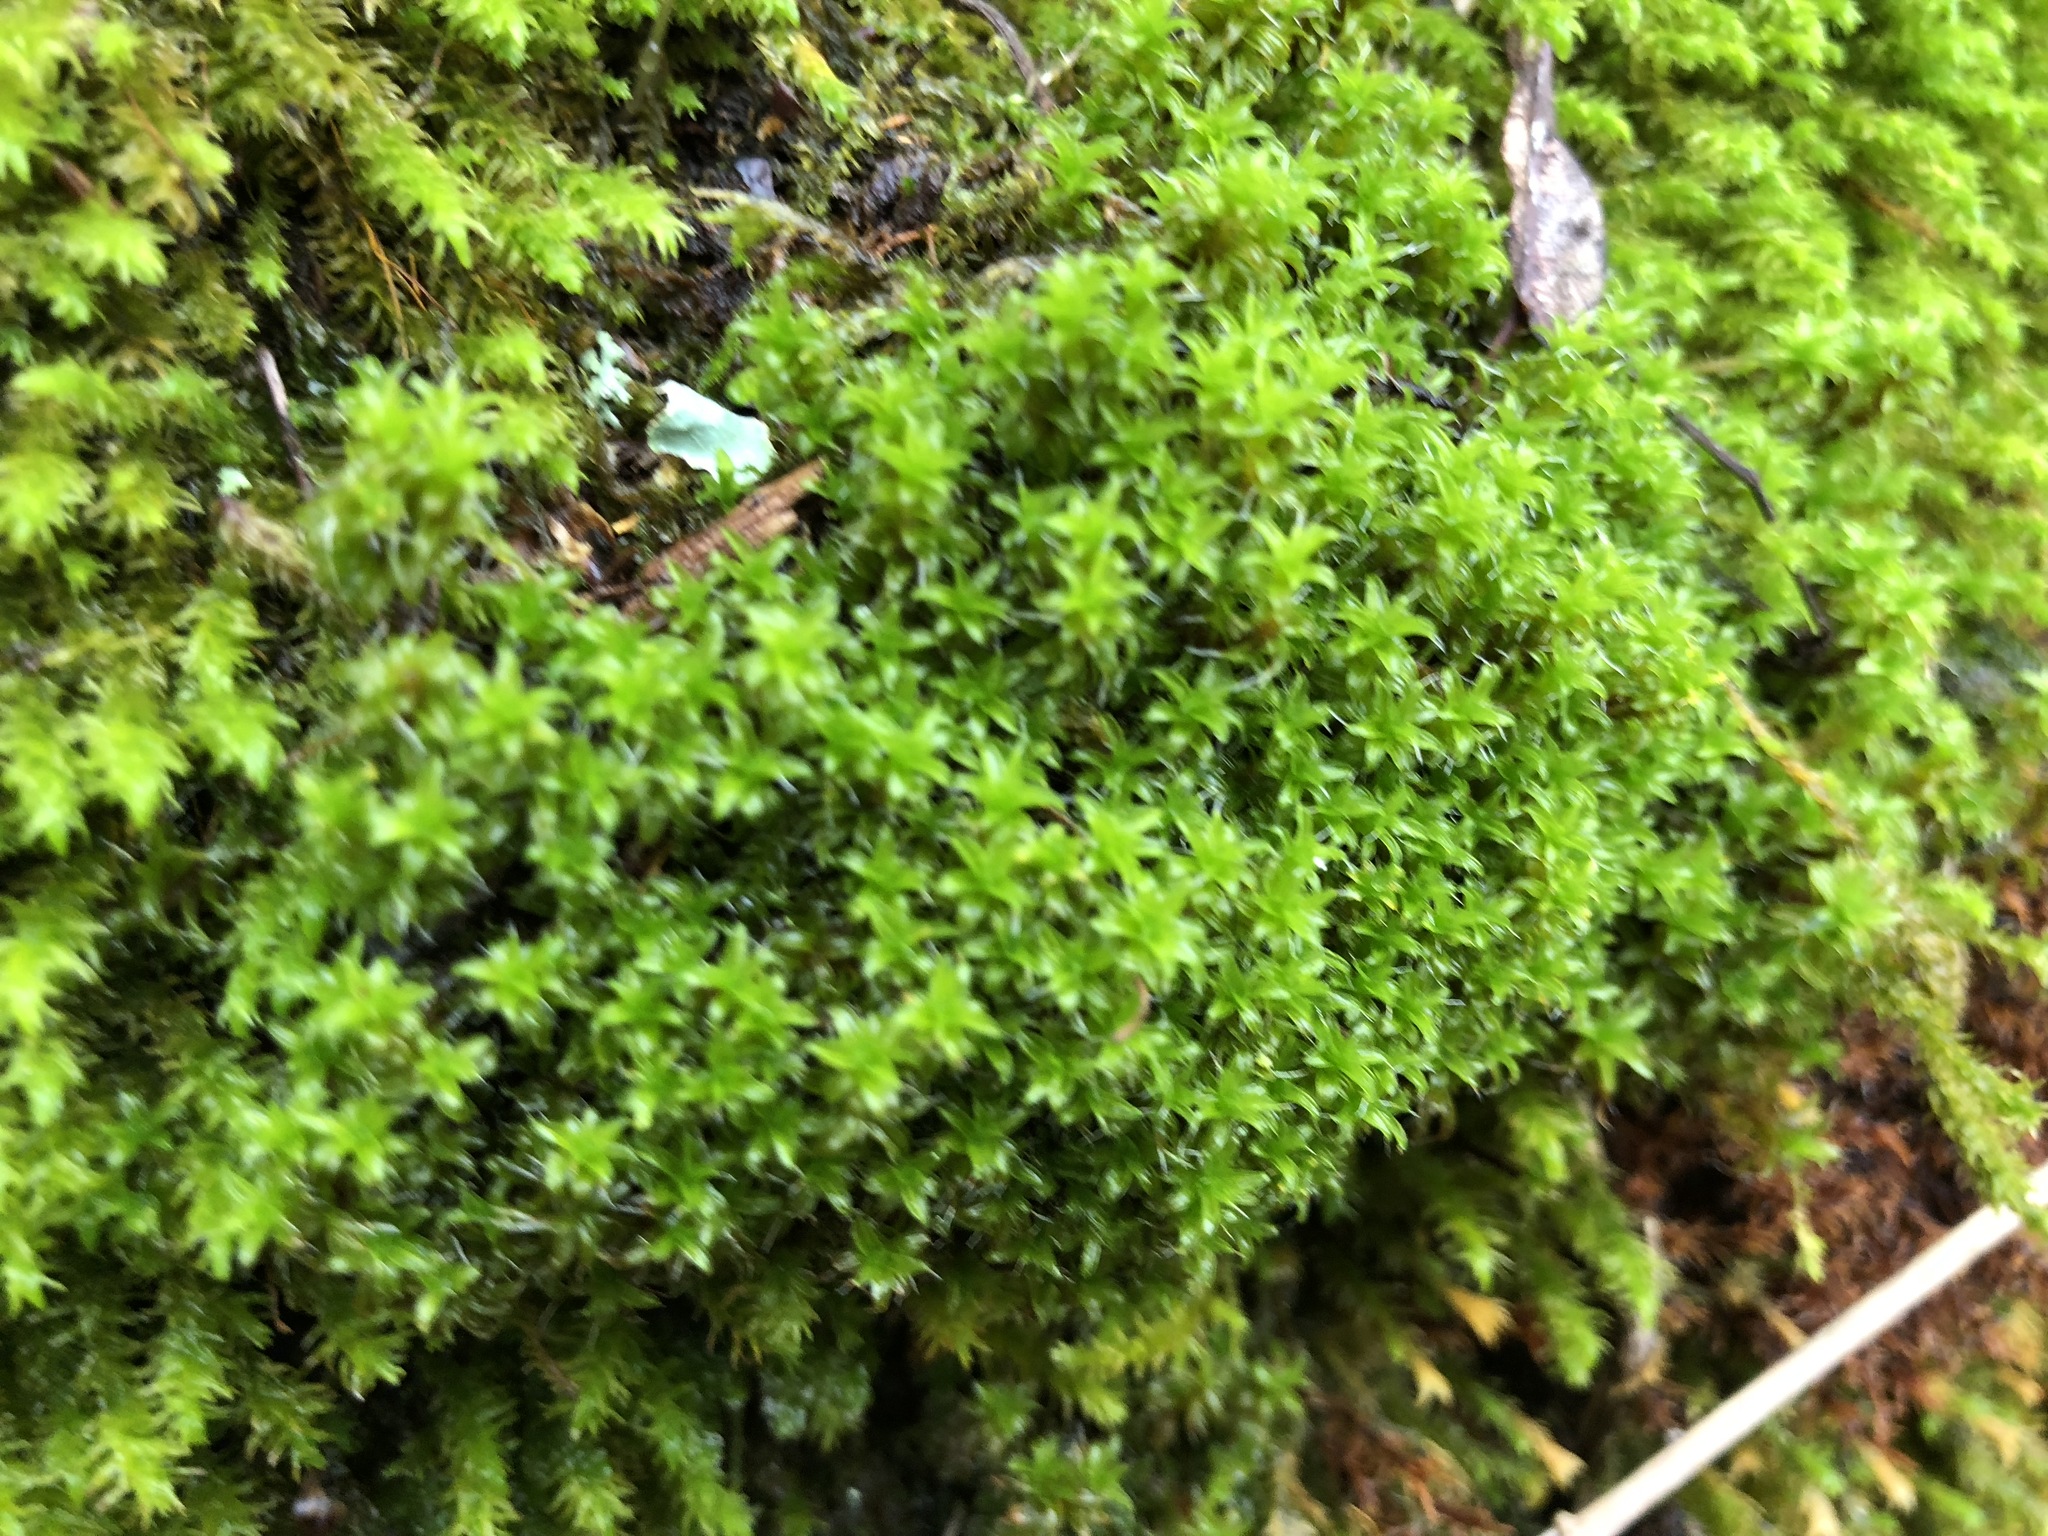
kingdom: Plantae
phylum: Bryophyta
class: Bryopsida
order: Pottiales
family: Pottiaceae
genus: Syntrichia
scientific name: Syntrichia ruralis
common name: Sidewalk screw moss
